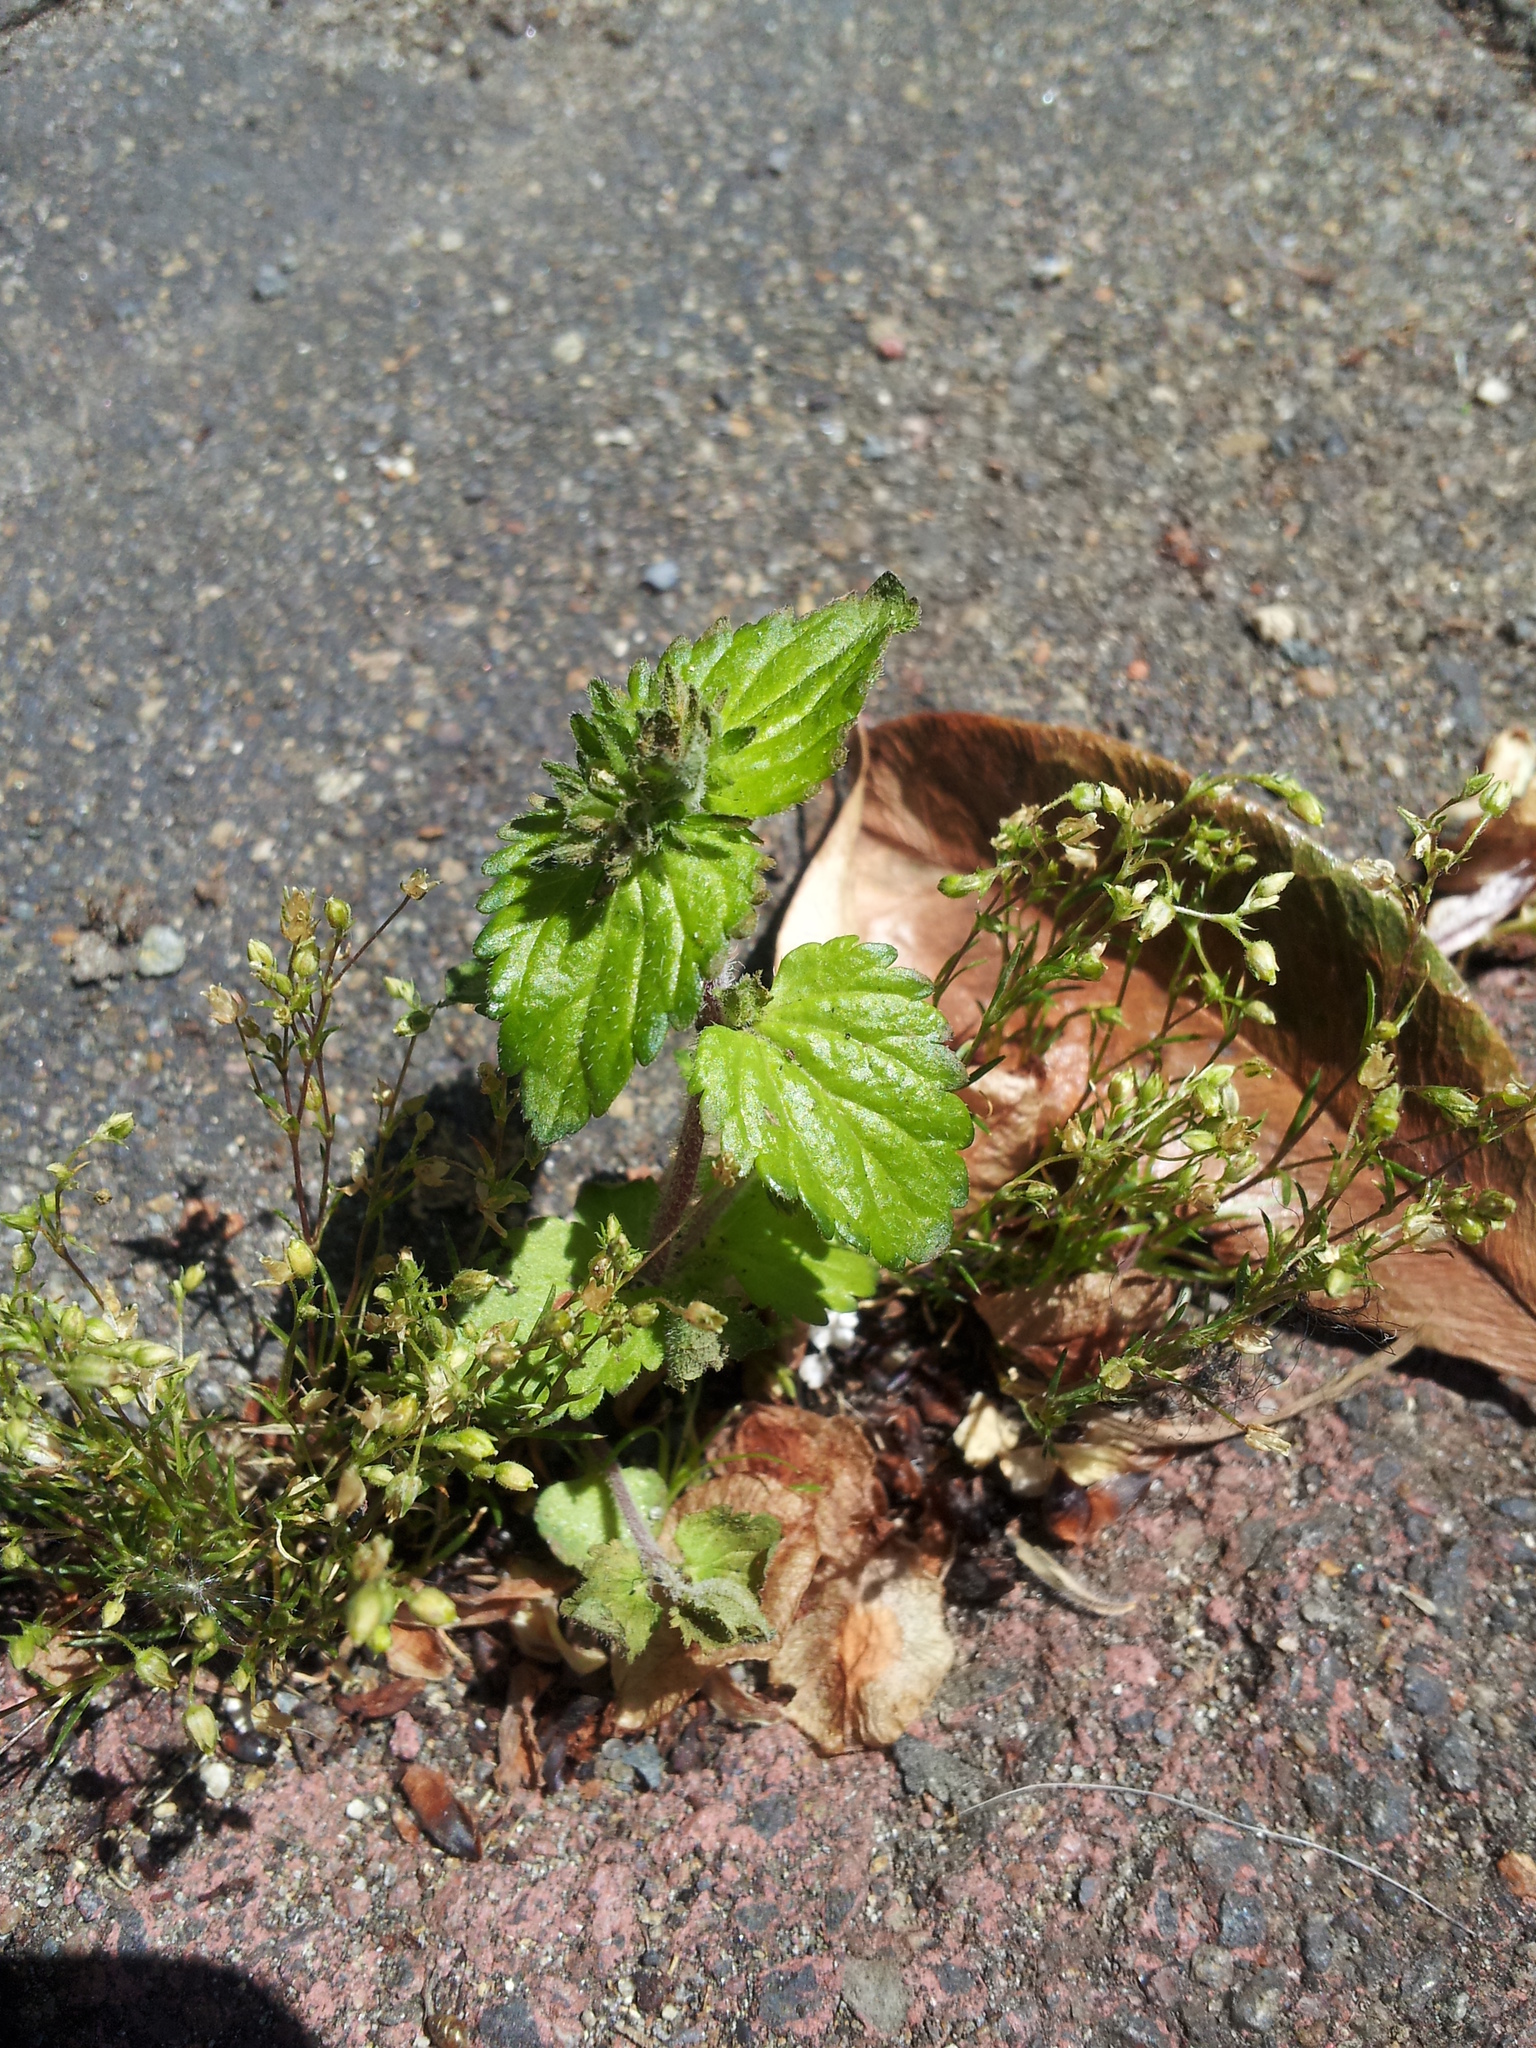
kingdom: Plantae
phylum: Tracheophyta
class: Magnoliopsida
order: Lamiales
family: Plantaginaceae
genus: Veronica
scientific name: Veronica javanica
